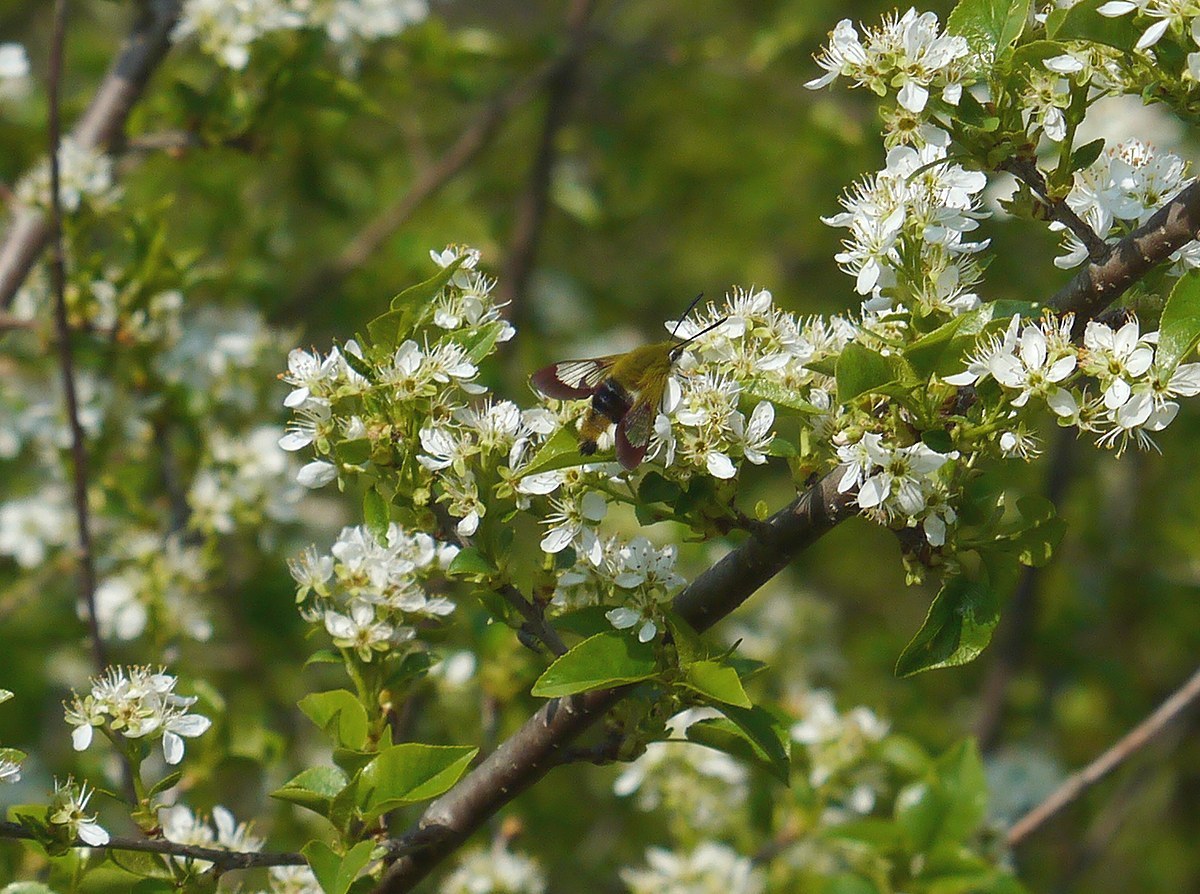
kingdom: Animalia
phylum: Arthropoda
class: Insecta
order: Lepidoptera
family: Sphingidae
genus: Hemaris
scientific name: Hemaris fuciformis
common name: Broad-bordered bee hawk-moth
